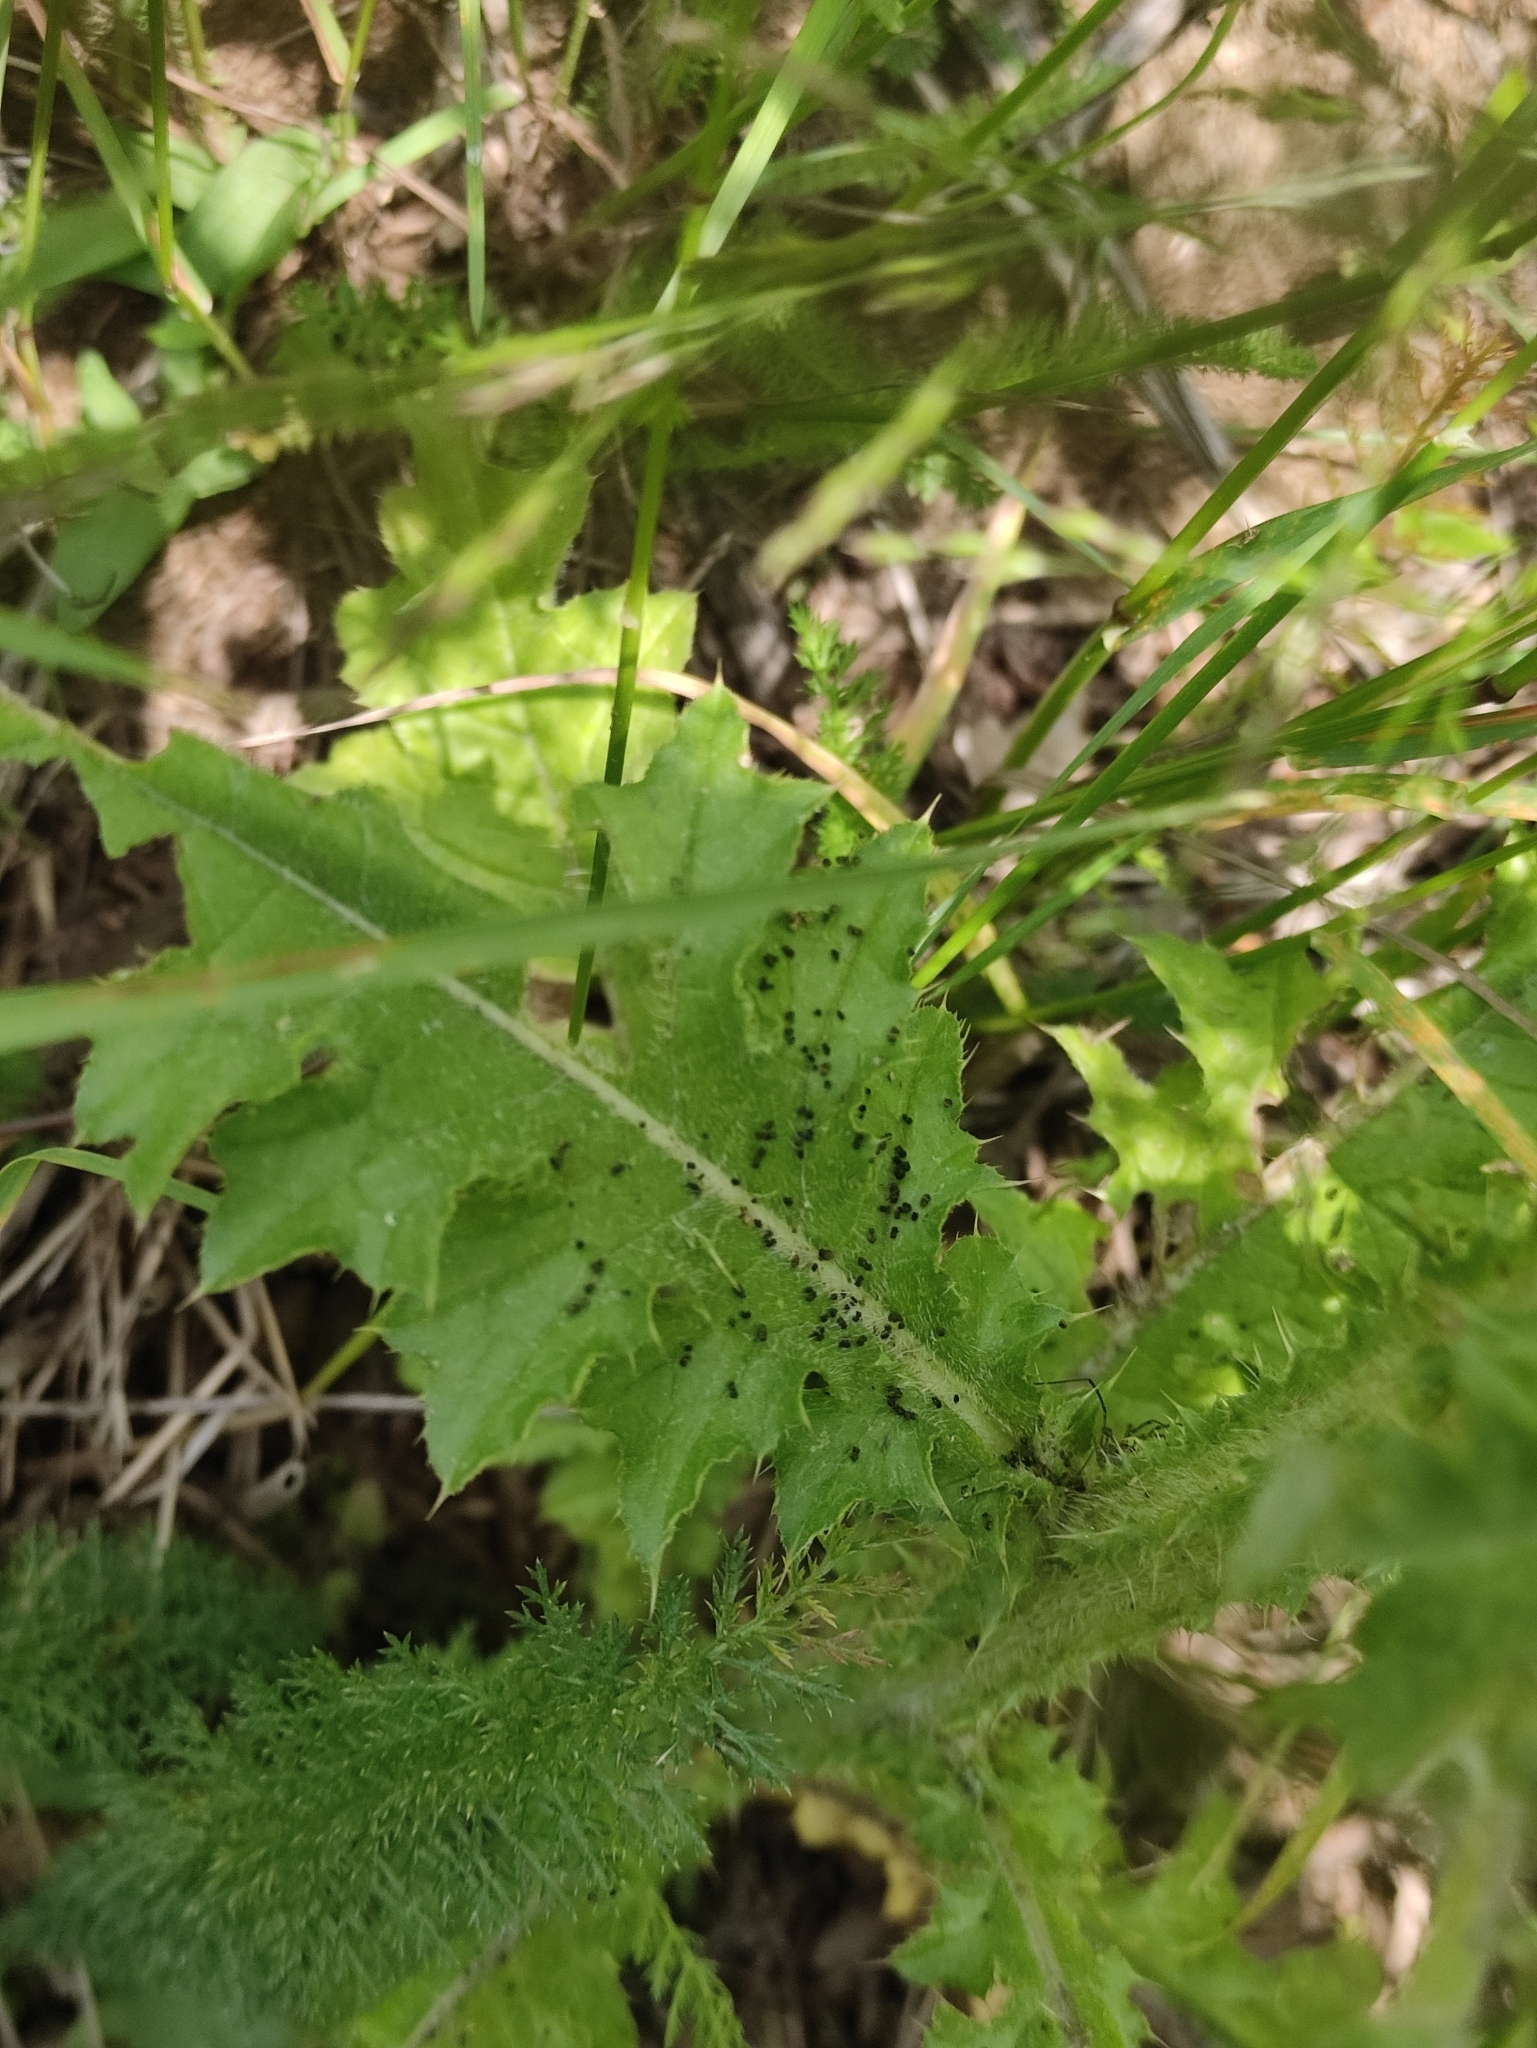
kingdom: Plantae
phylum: Tracheophyta
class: Magnoliopsida
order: Asterales
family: Asteraceae
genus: Carduus
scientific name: Carduus crispus
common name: Welted thistle
